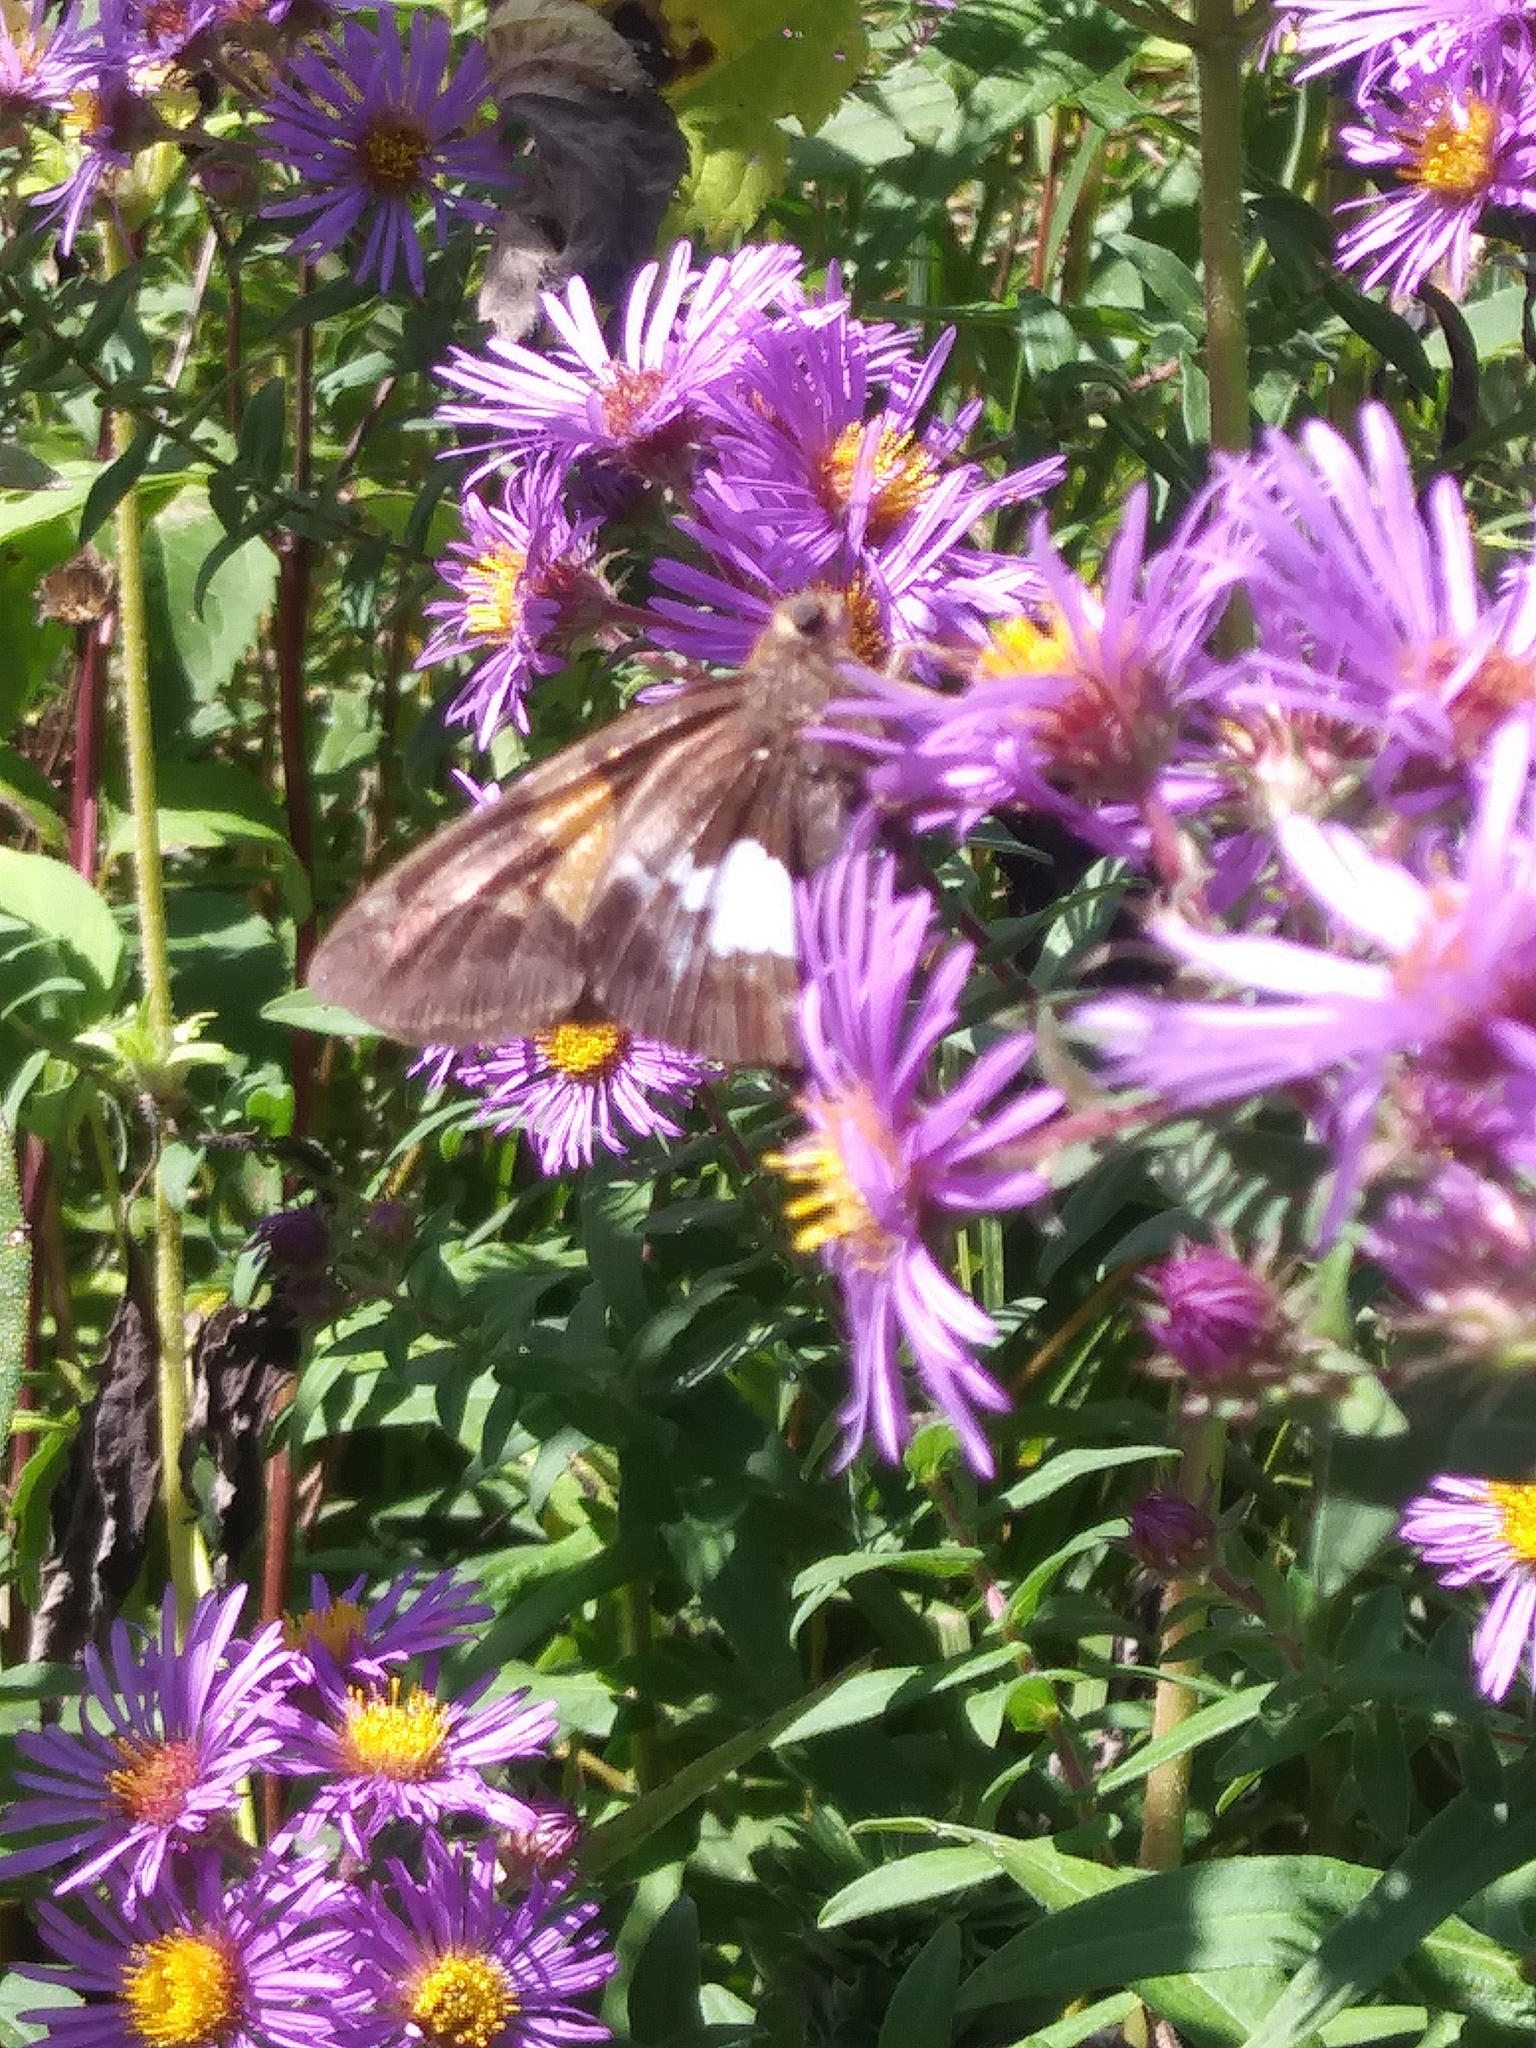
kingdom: Animalia
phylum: Arthropoda
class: Insecta
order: Lepidoptera
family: Hesperiidae
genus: Epargyreus
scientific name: Epargyreus clarus
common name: Silver-spotted skipper
